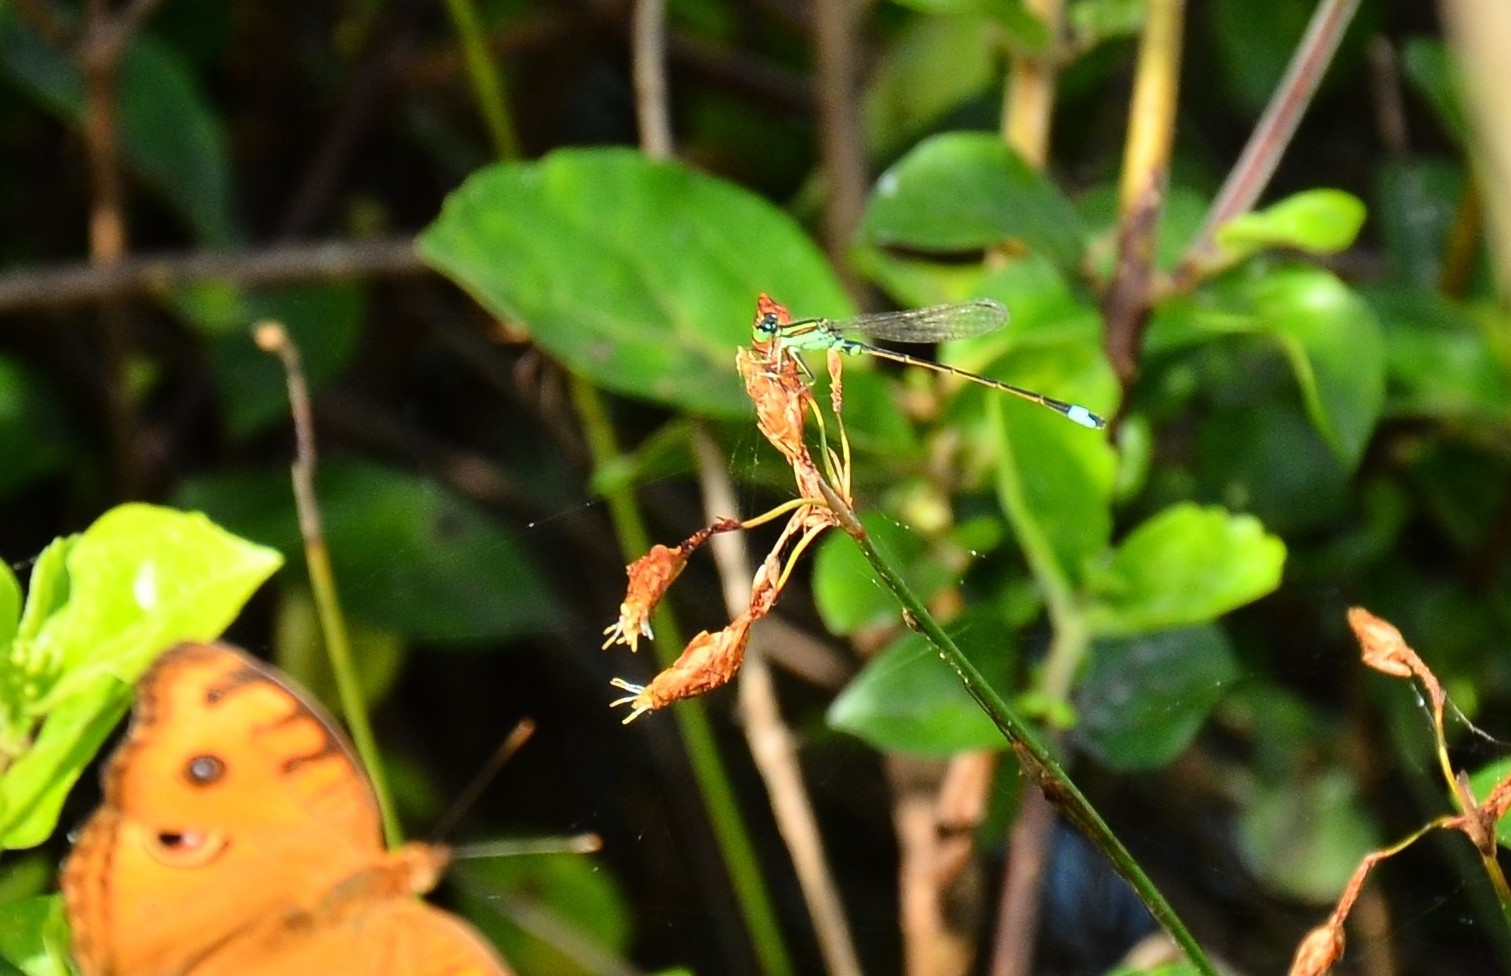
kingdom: Animalia
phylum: Arthropoda
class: Insecta
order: Odonata
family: Coenagrionidae
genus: Ischnura
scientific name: Ischnura senegalensis
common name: Tropical bluetail
